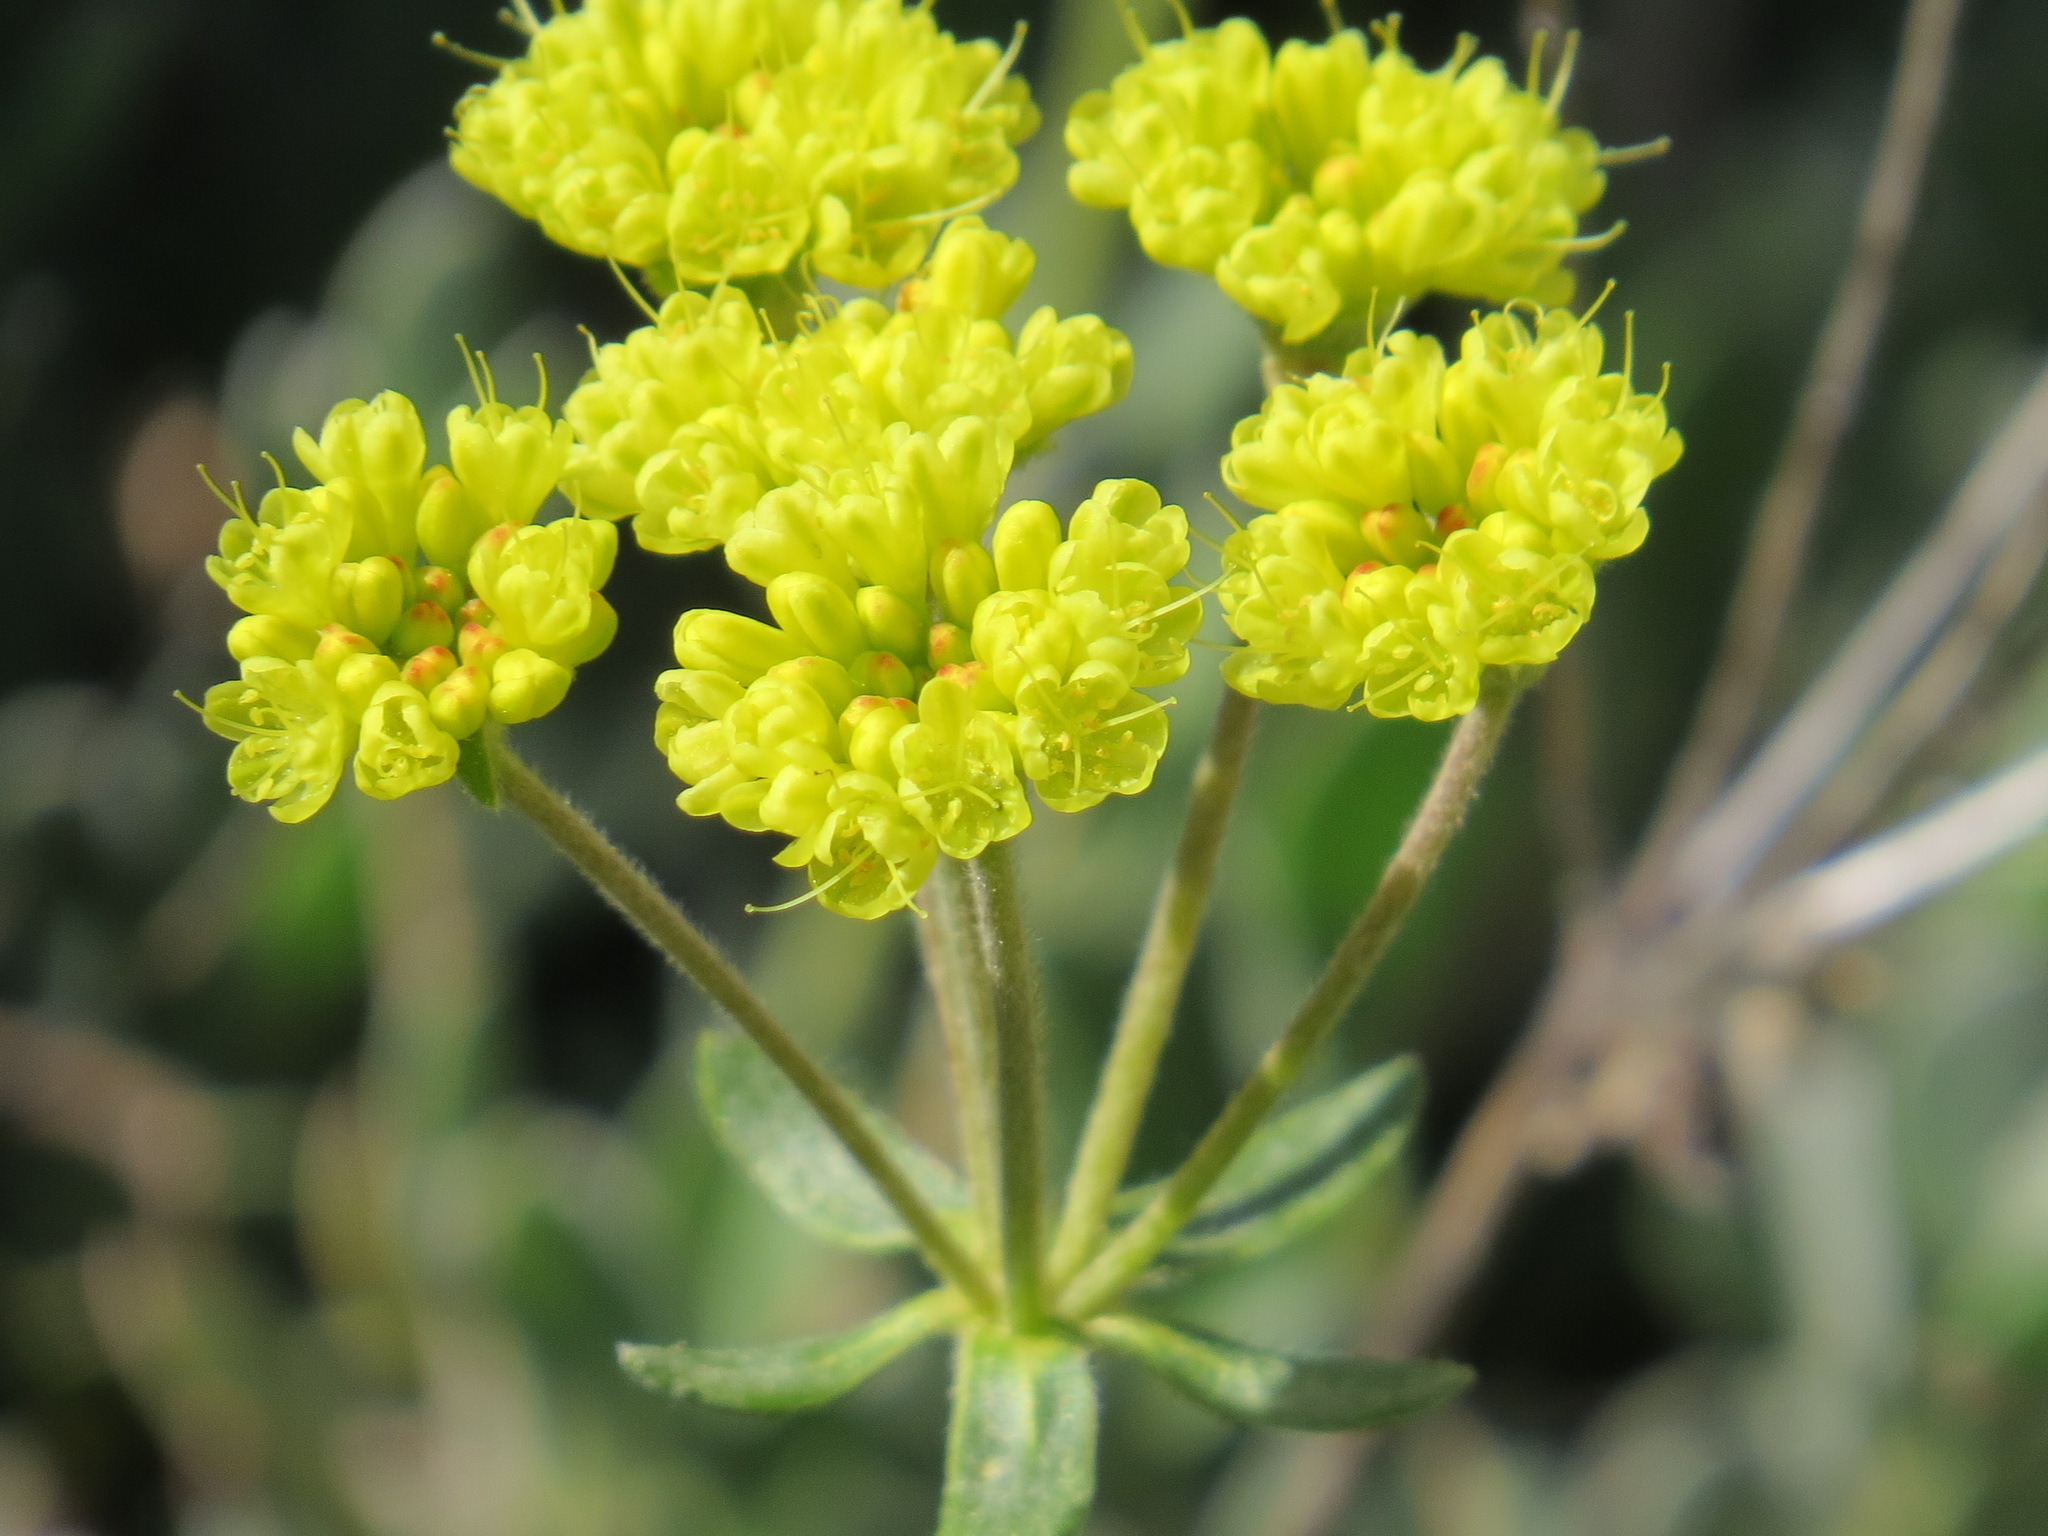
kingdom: Plantae
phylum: Tracheophyta
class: Magnoliopsida
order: Caryophyllales
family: Polygonaceae
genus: Eriogonum
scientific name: Eriogonum umbellatum
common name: Sulfur-buckwheat
